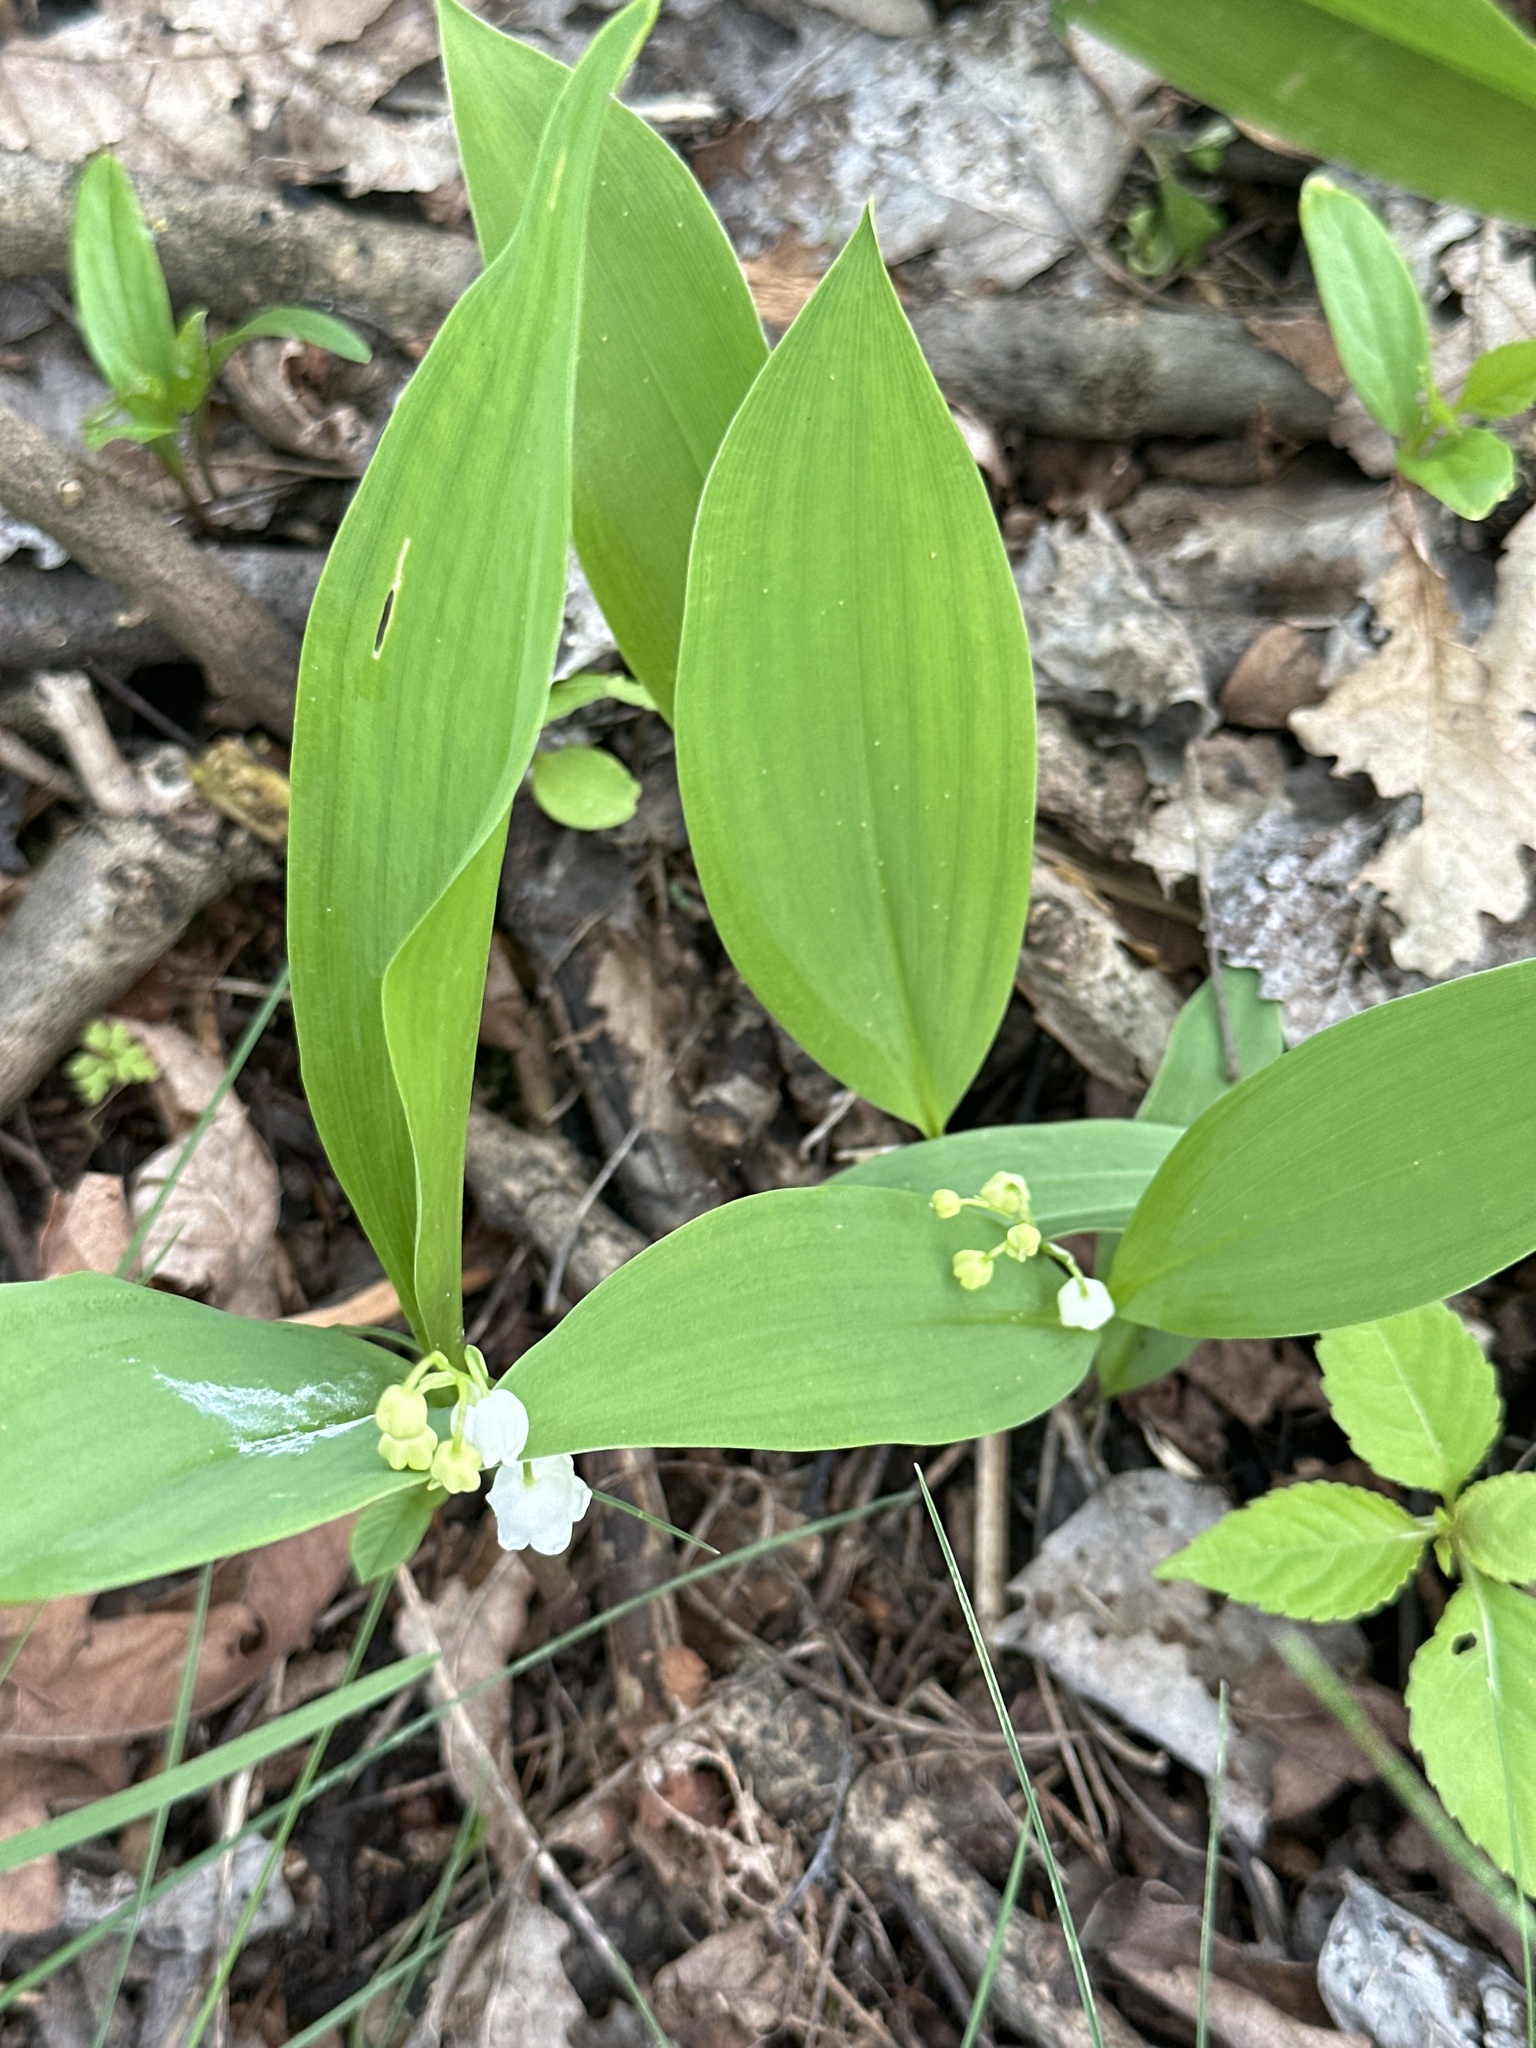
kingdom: Plantae
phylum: Tracheophyta
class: Liliopsida
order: Asparagales
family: Asparagaceae
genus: Convallaria
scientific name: Convallaria majalis
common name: Lily-of-the-valley
